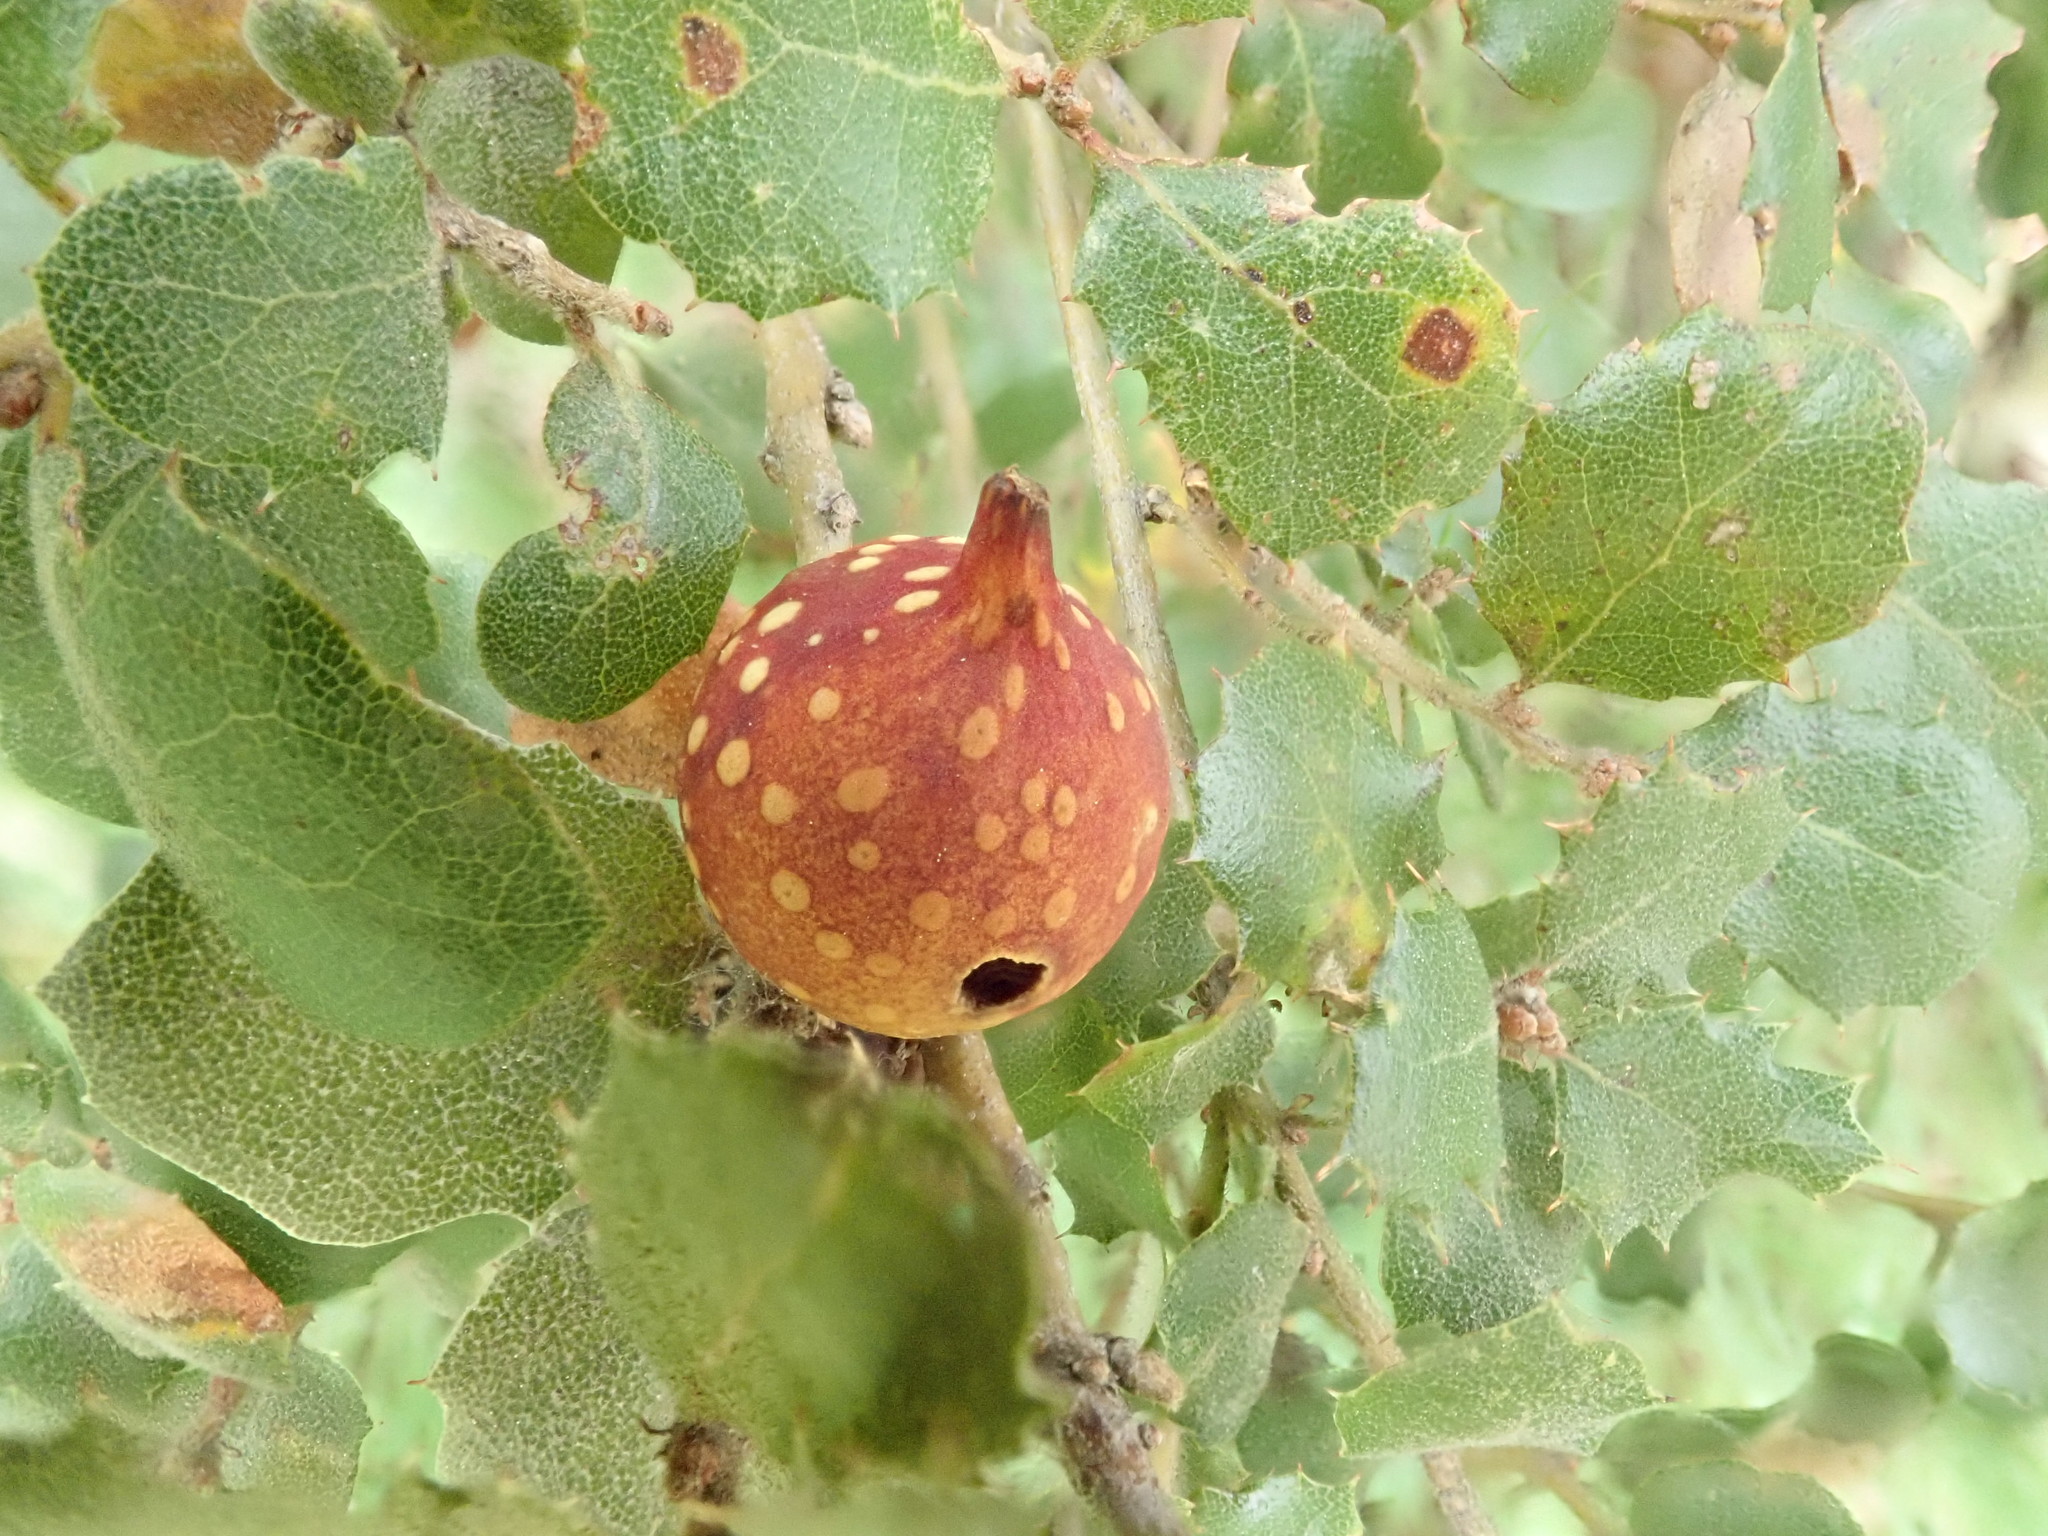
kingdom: Animalia
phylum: Arthropoda
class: Insecta
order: Hymenoptera
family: Cynipidae
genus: Burnettweldia
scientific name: Burnettweldia
